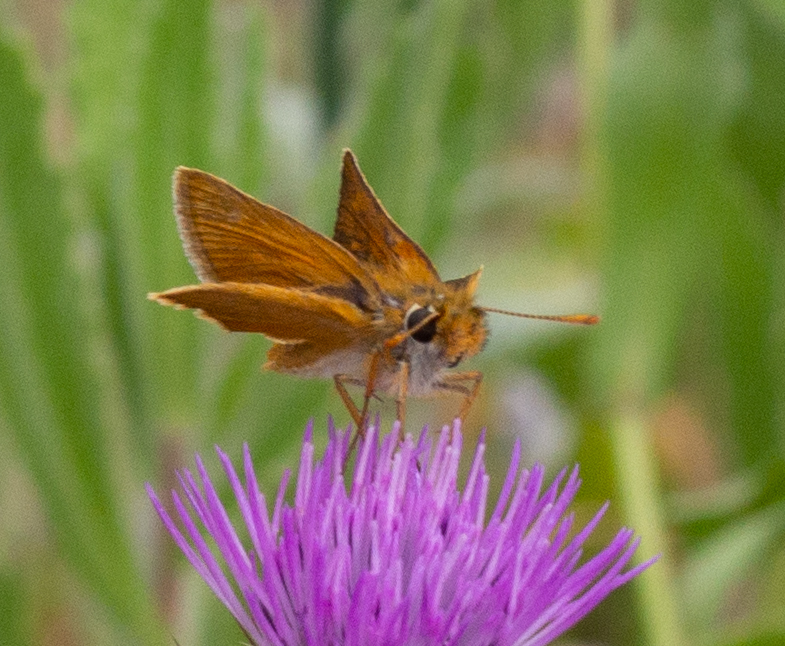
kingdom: Animalia
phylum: Arthropoda
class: Insecta
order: Lepidoptera
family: Hesperiidae
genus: Thymelicus
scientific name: Thymelicus acteon
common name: Lulworth skipper
